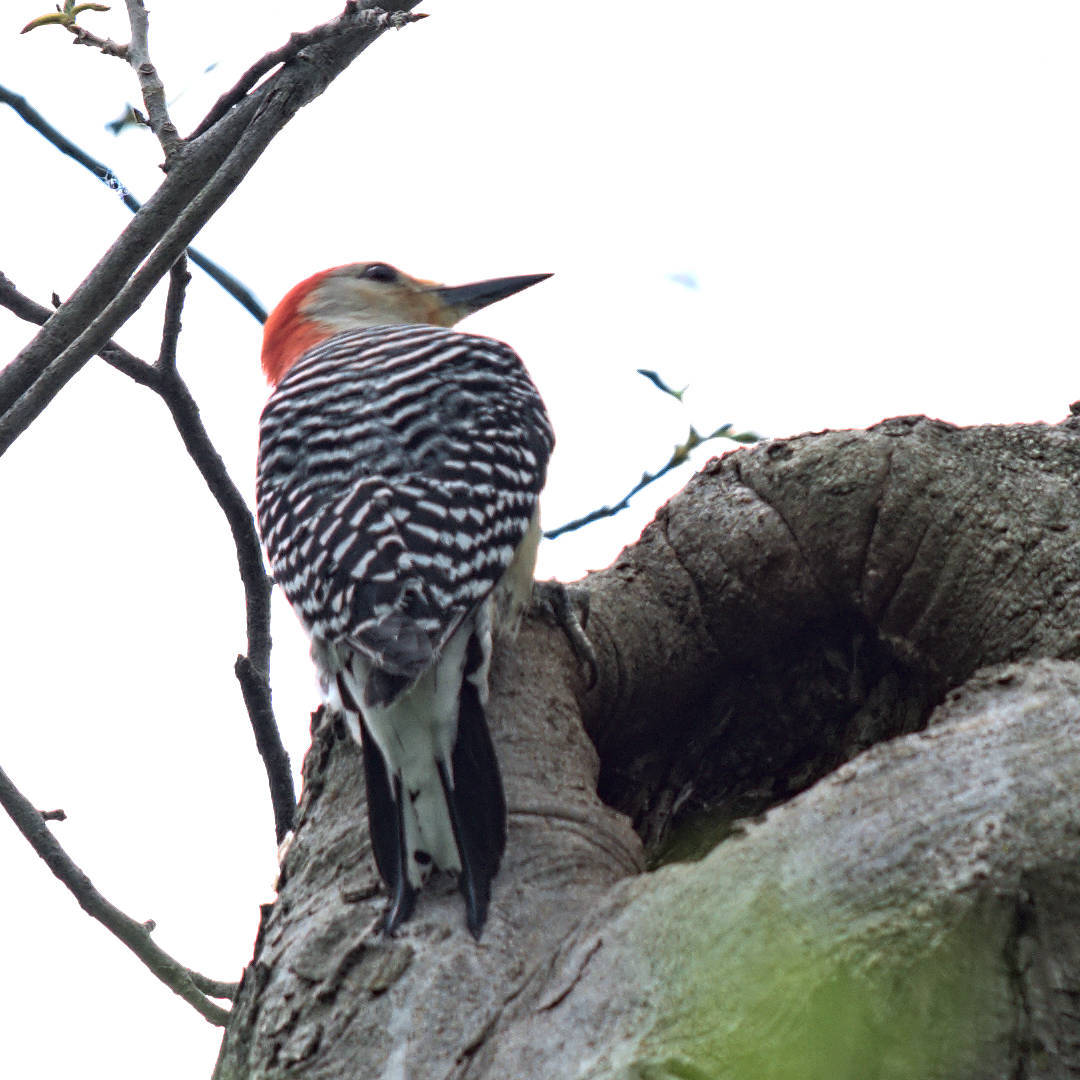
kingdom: Animalia
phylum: Chordata
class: Aves
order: Piciformes
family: Picidae
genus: Melanerpes
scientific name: Melanerpes carolinus
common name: Red-bellied woodpecker
